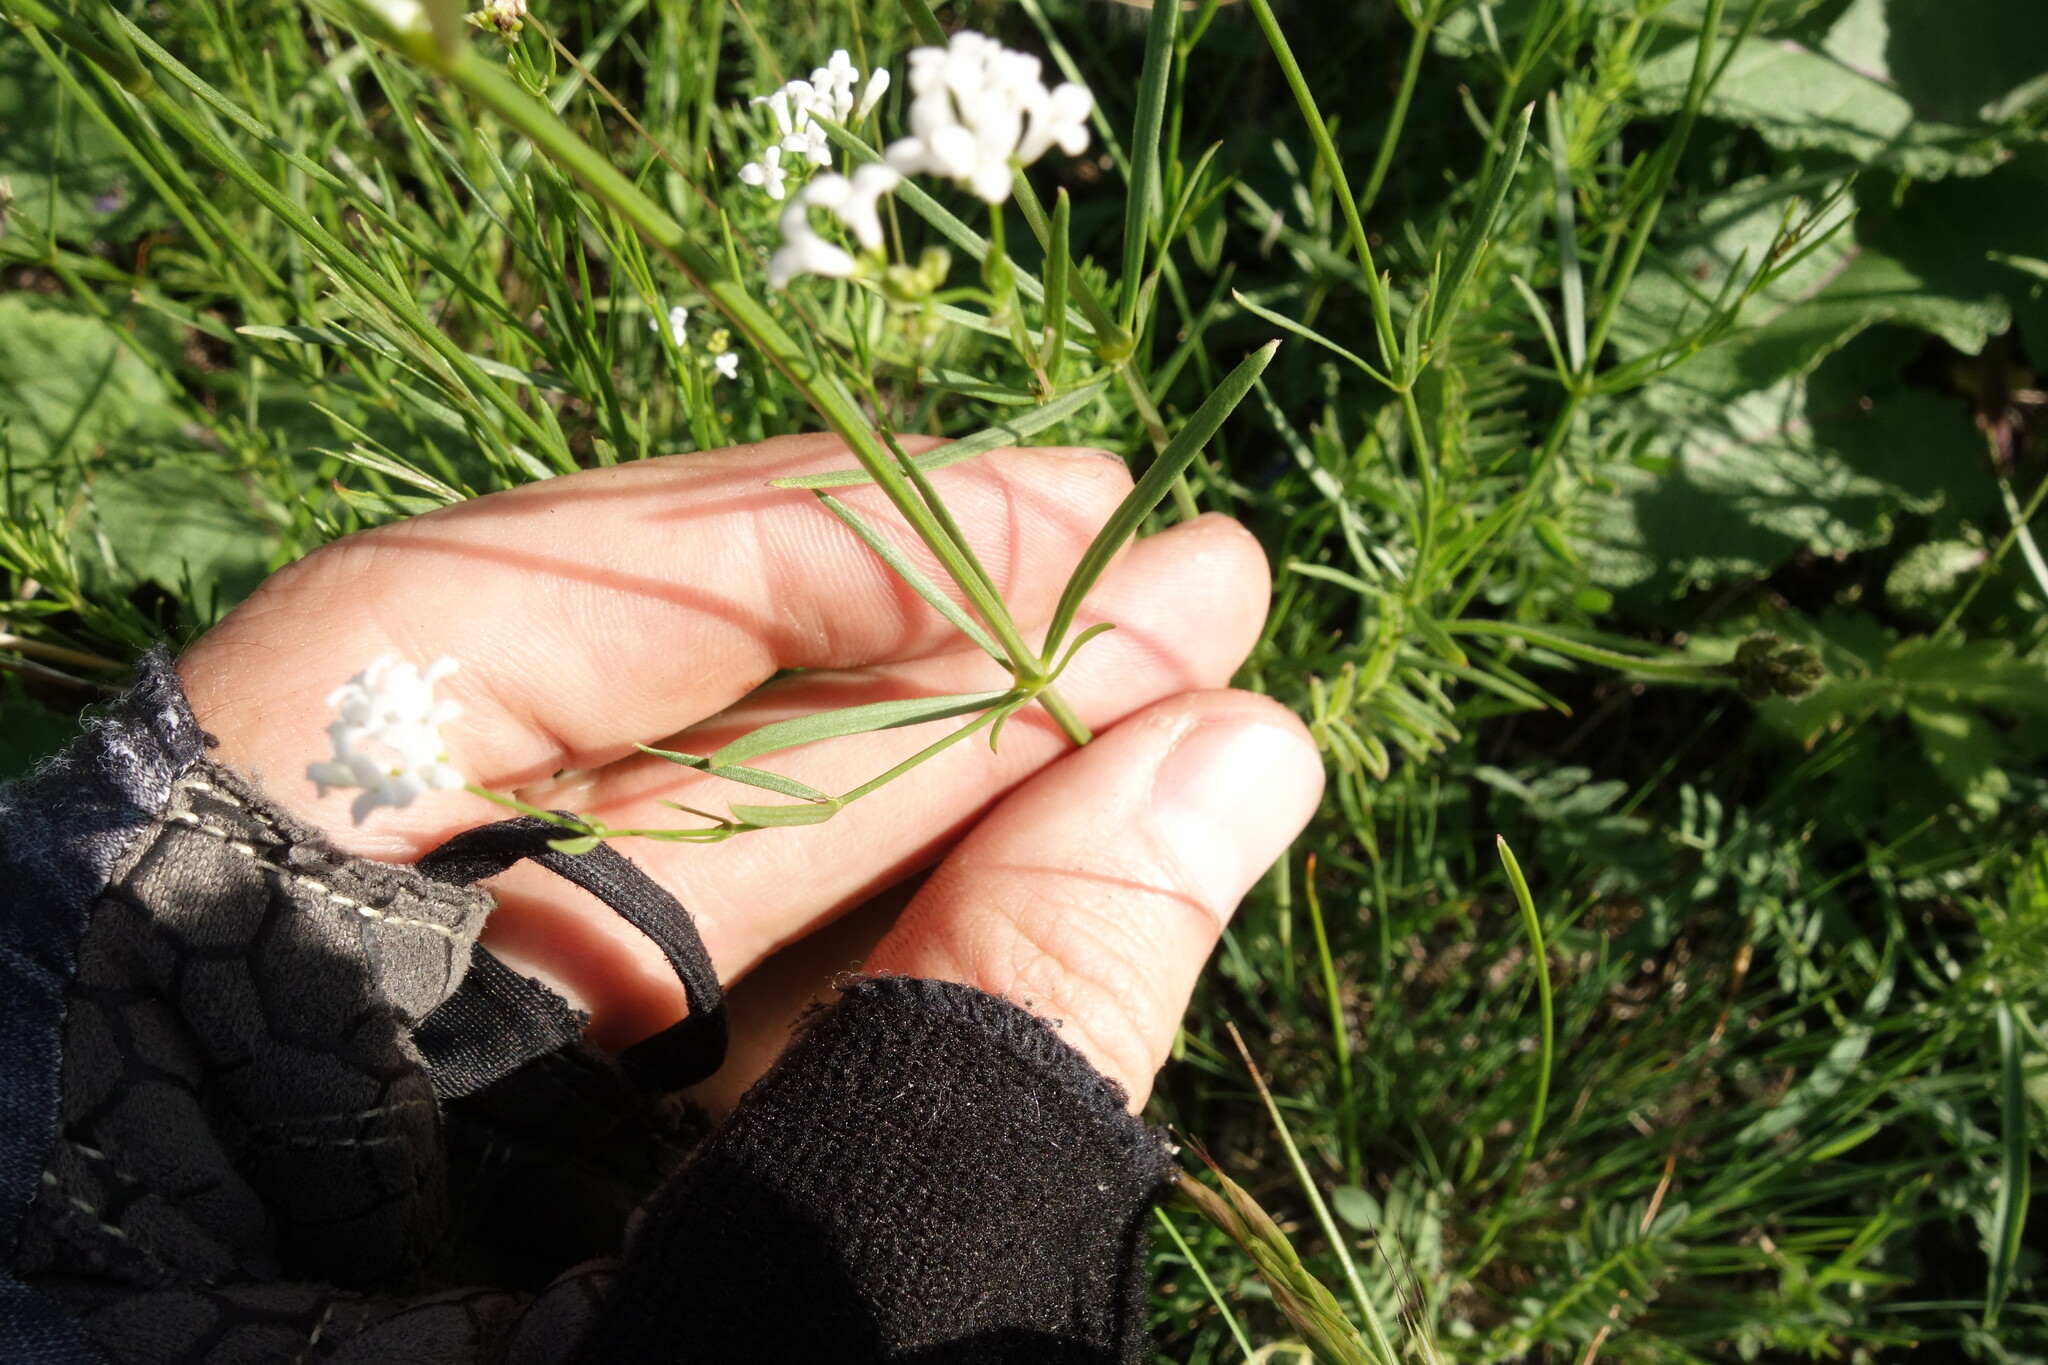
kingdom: Plantae
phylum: Tracheophyta
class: Magnoliopsida
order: Gentianales
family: Rubiaceae
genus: Asperula
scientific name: Asperula tinctoria
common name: Dyer's woodruff
